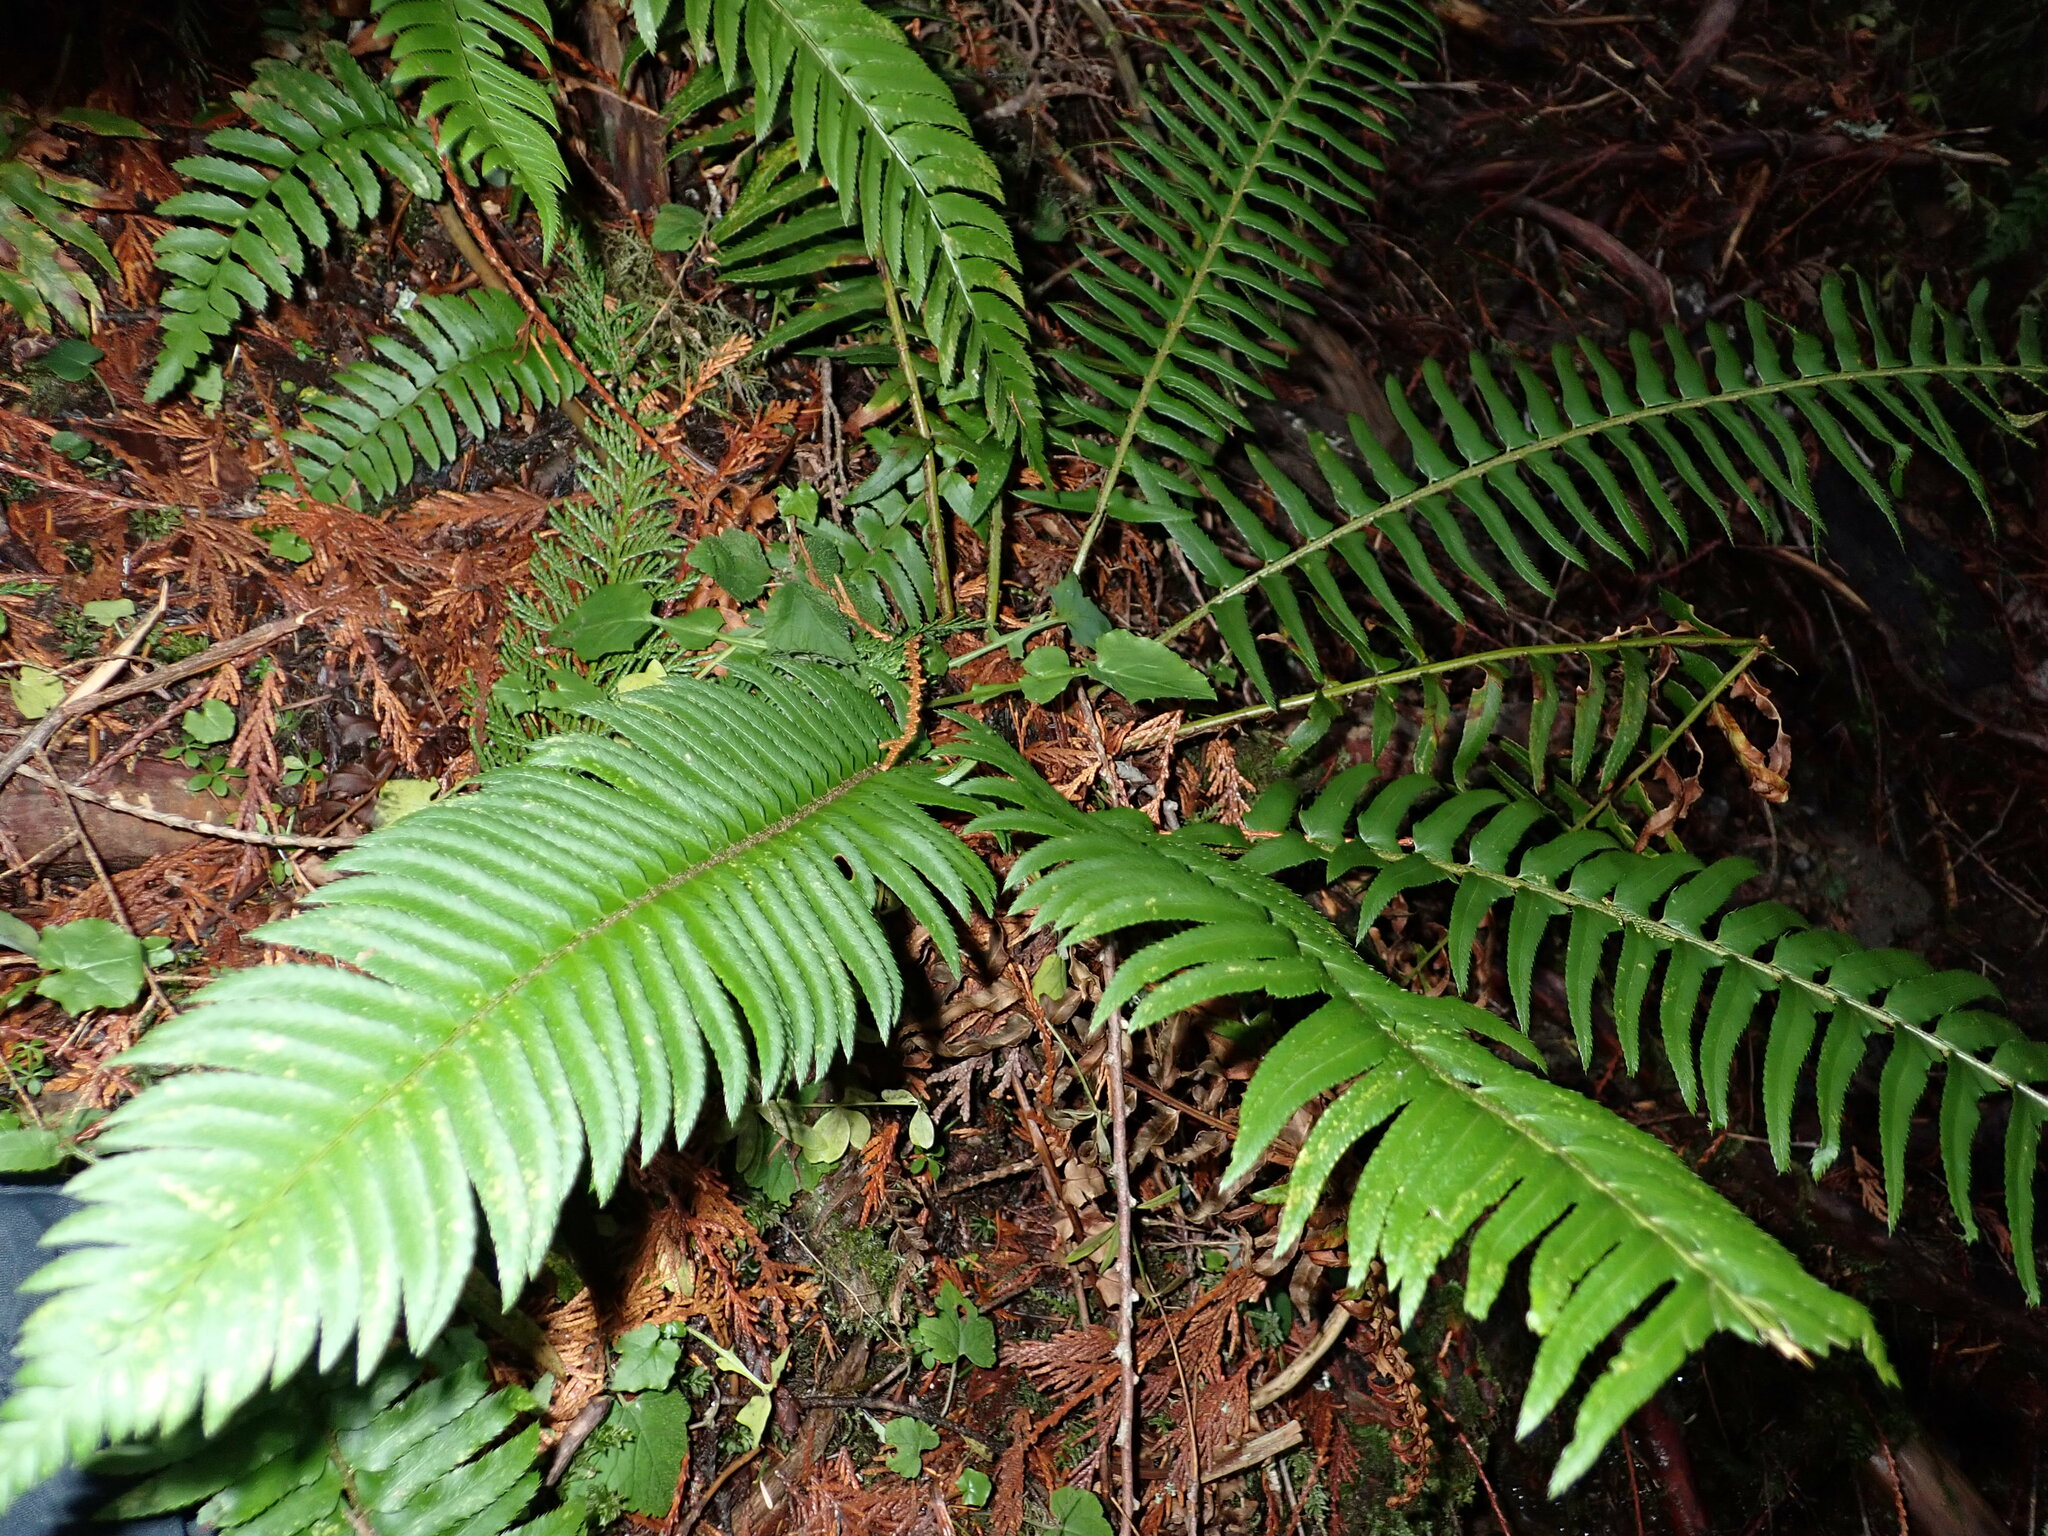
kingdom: Plantae
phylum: Tracheophyta
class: Polypodiopsida
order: Polypodiales
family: Dryopteridaceae
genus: Polystichum
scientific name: Polystichum munitum
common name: Western sword-fern
